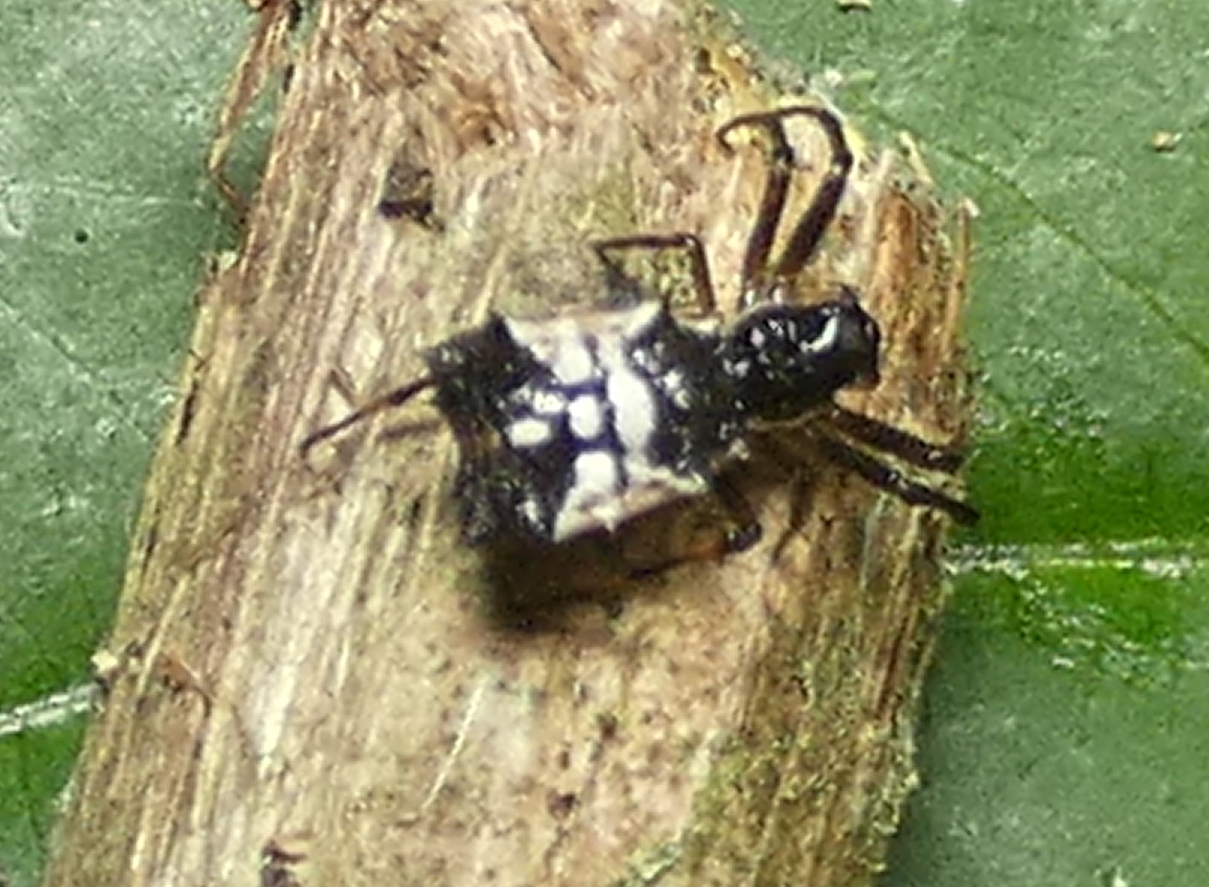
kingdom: Animalia
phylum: Arthropoda
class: Arachnida
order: Araneae
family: Araneidae
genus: Micrathena
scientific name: Micrathena picta
